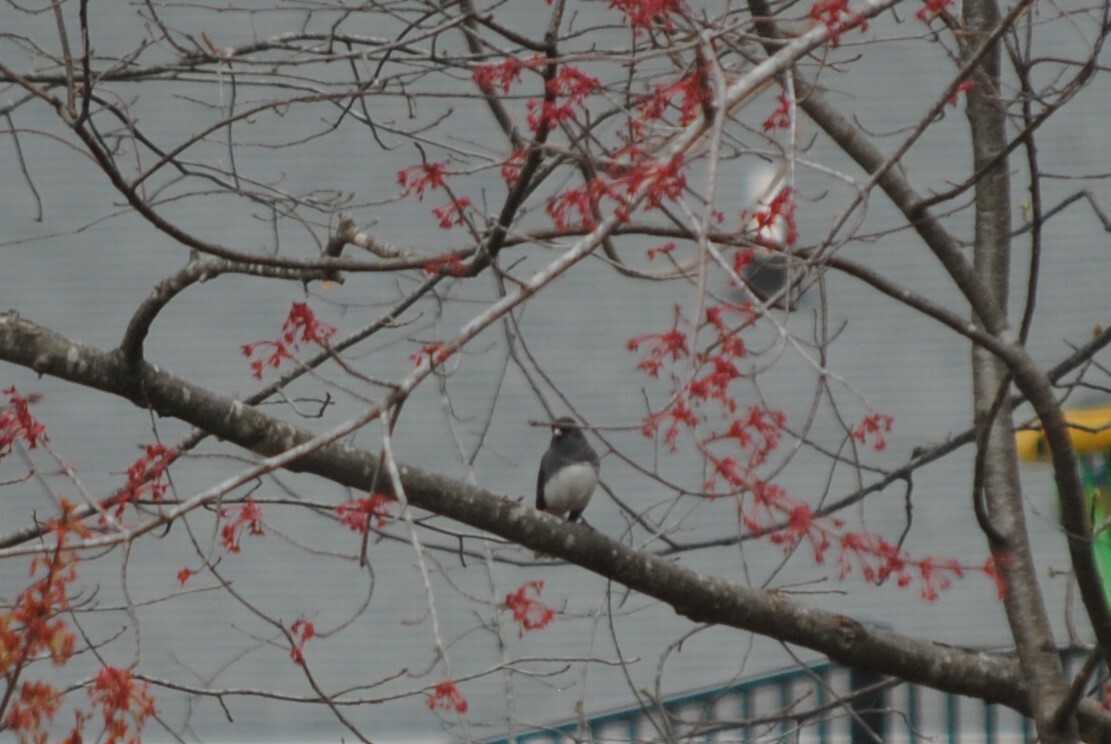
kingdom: Animalia
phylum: Chordata
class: Aves
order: Passeriformes
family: Passerellidae
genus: Junco
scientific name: Junco hyemalis
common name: Dark-eyed junco
